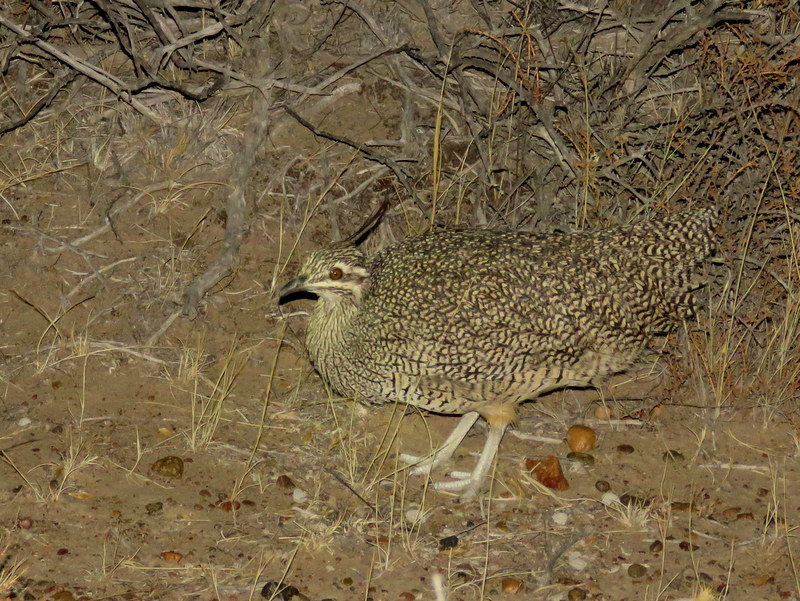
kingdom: Animalia
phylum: Chordata
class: Aves
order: Tinamiformes
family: Tinamidae
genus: Eudromia
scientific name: Eudromia elegans
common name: Elegant crested tinamou
